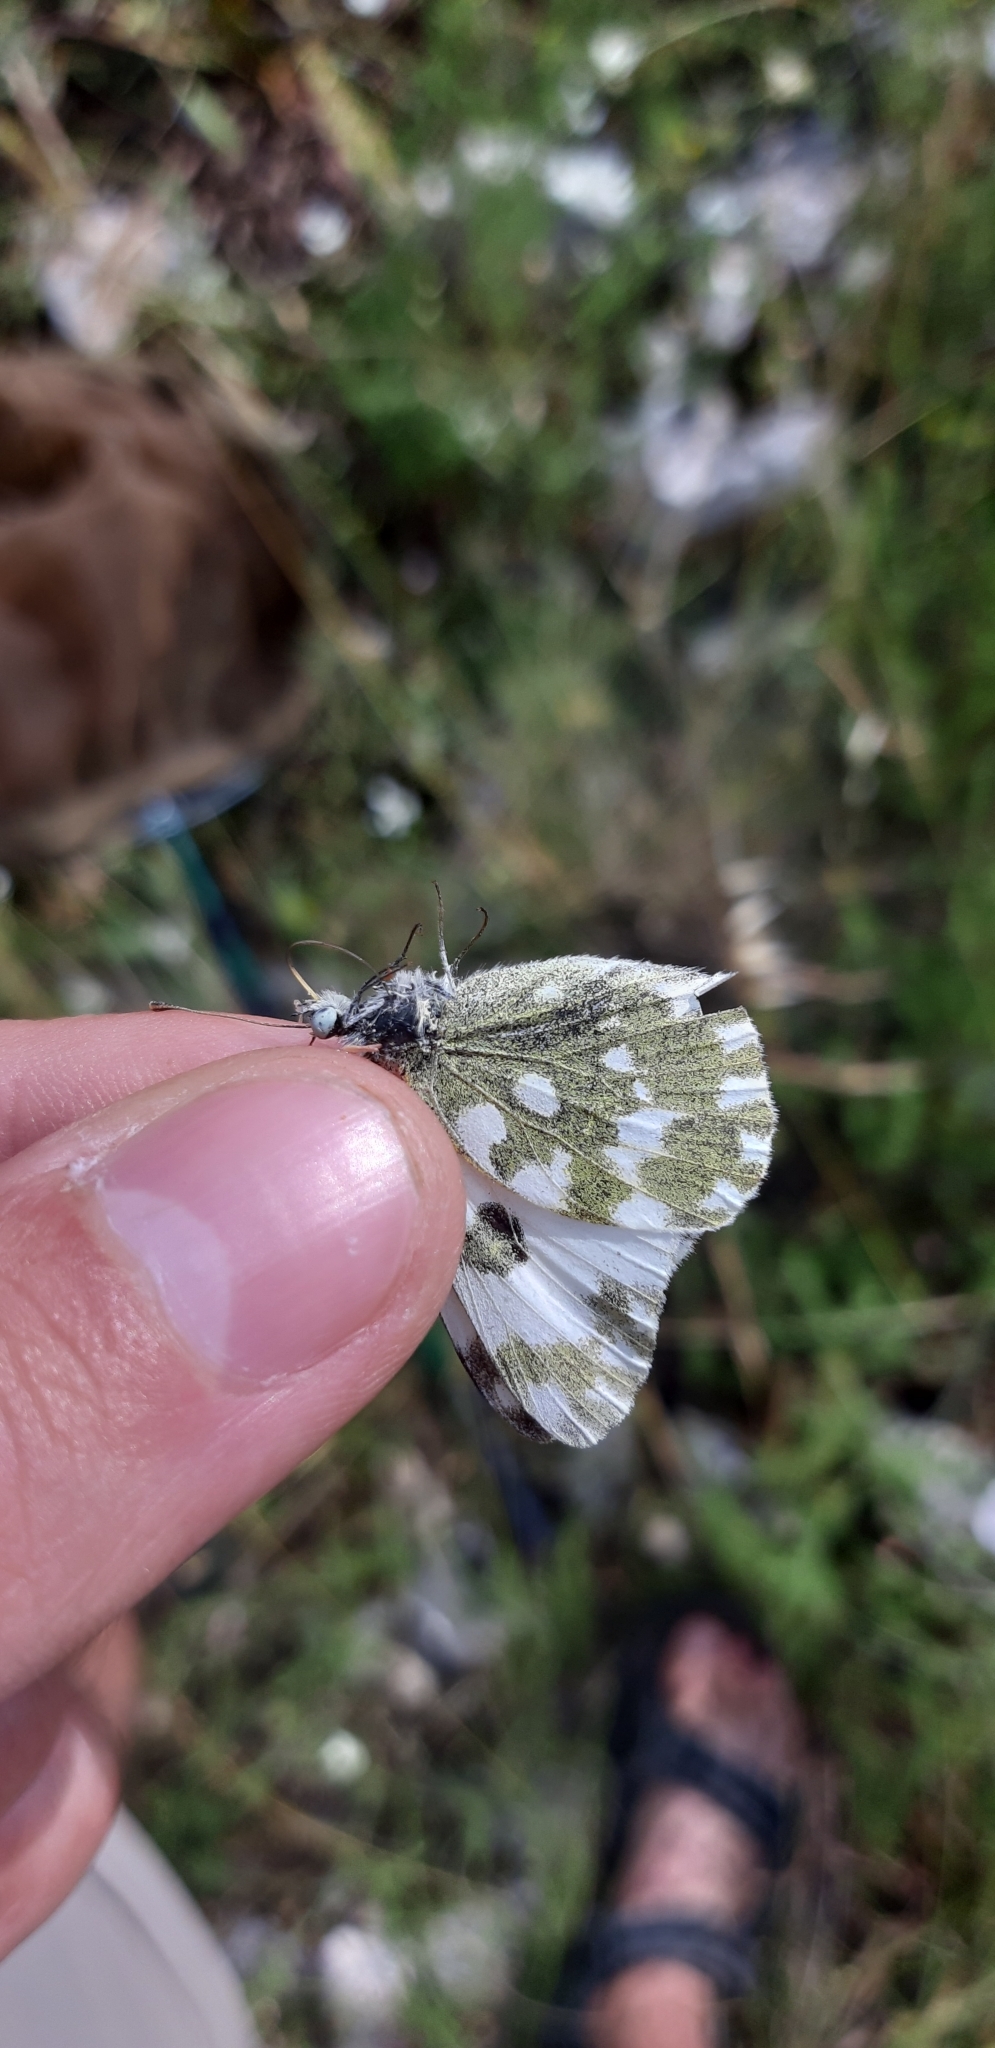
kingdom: Animalia
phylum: Arthropoda
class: Insecta
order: Lepidoptera
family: Pieridae
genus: Pontia
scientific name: Pontia edusa
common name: Eastern bath white
